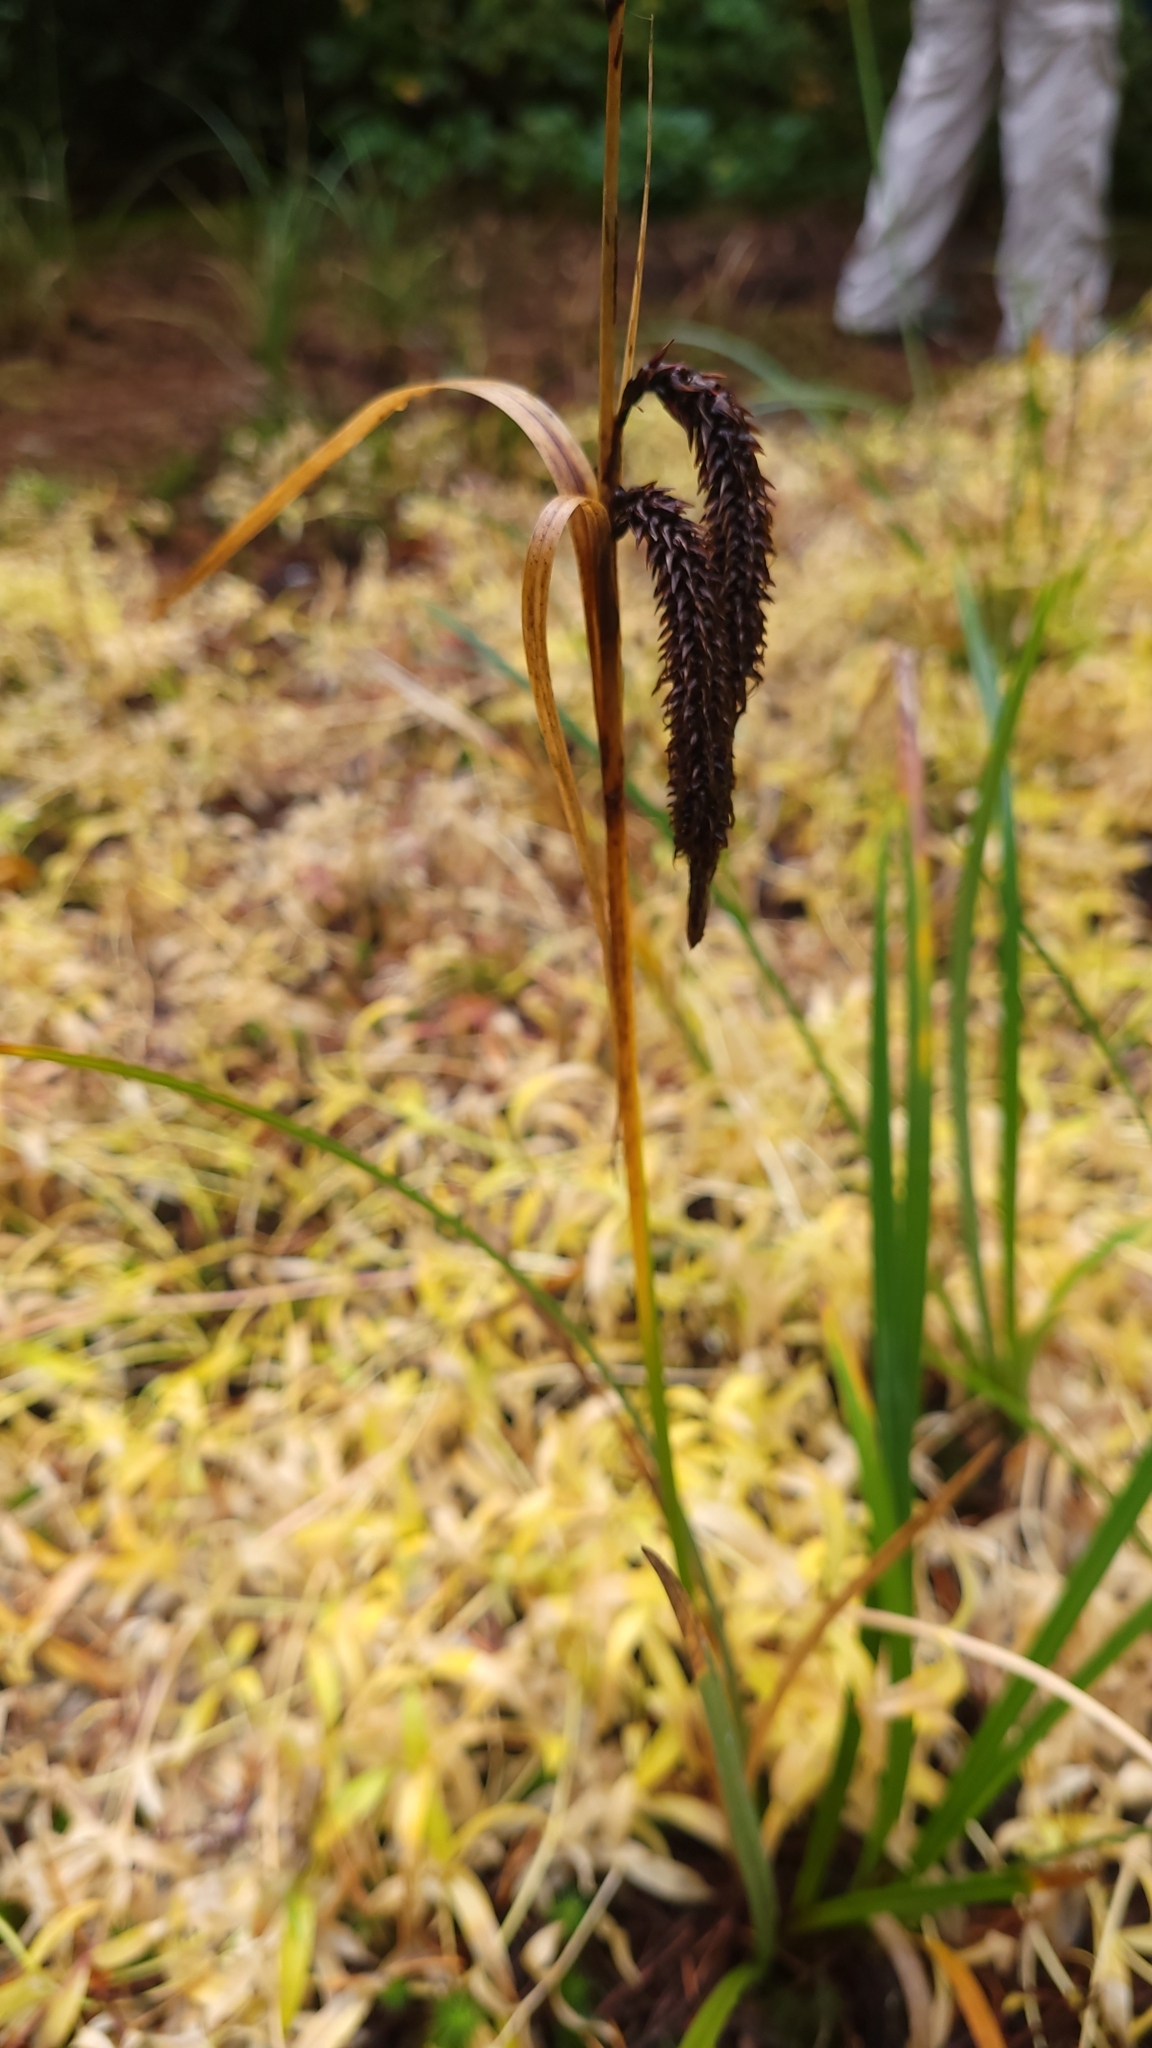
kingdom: Plantae
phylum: Tracheophyta
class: Liliopsida
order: Poales
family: Cyperaceae
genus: Carex
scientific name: Carex obnupta
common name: Slough sedge
